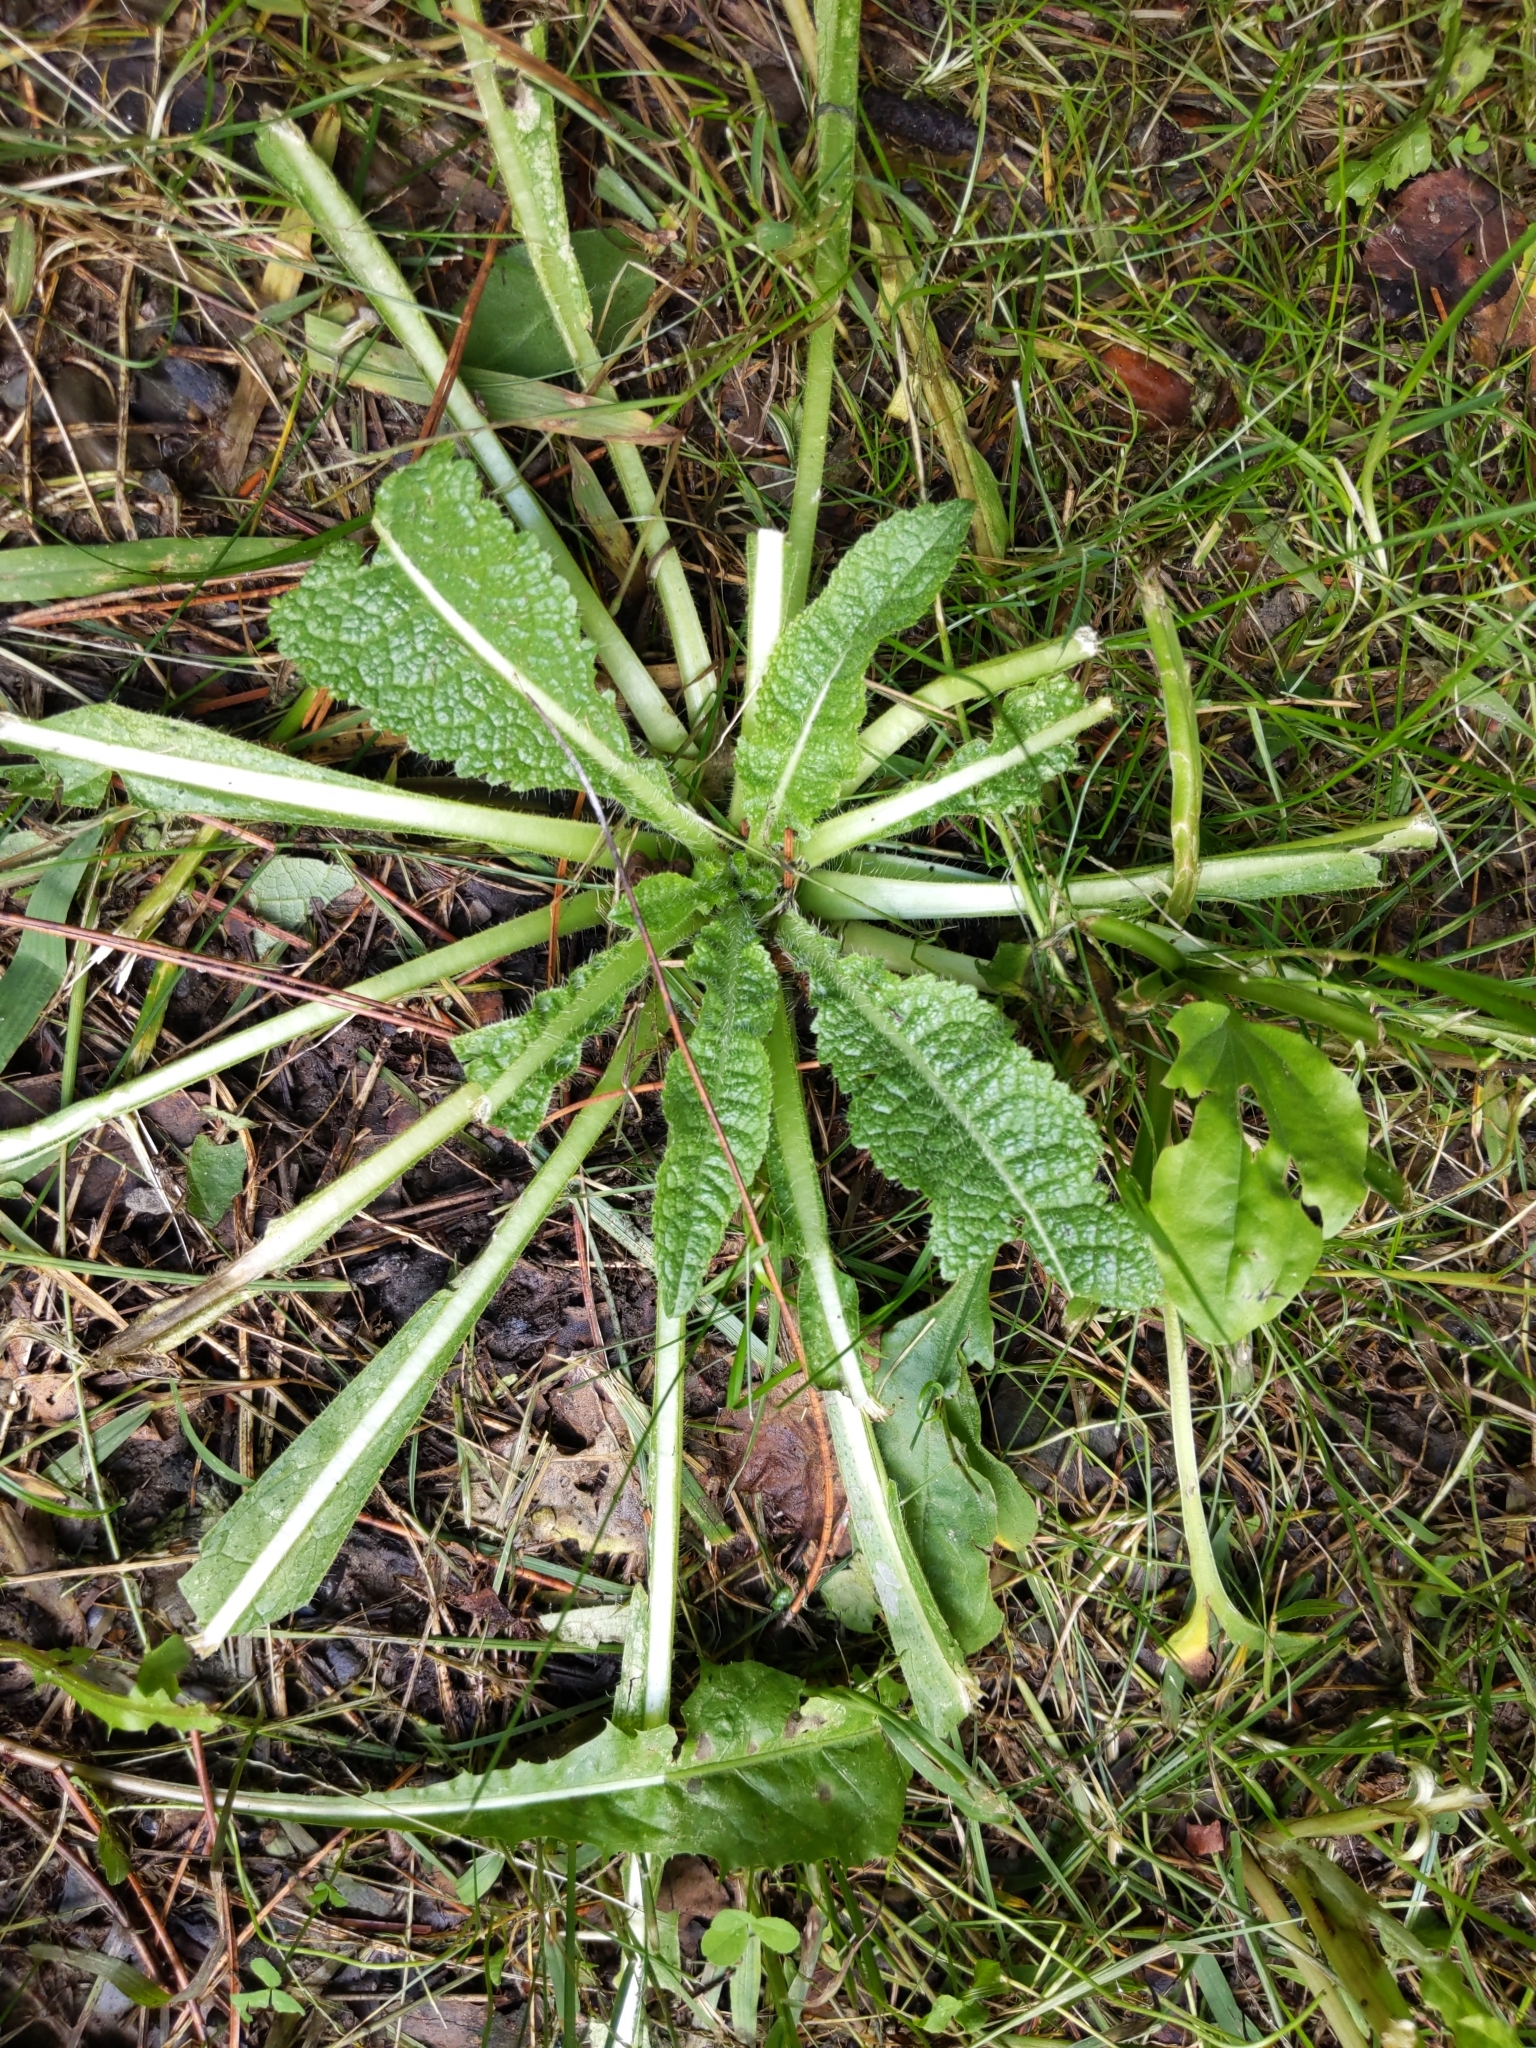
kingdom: Plantae
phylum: Tracheophyta
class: Magnoliopsida
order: Dipsacales
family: Caprifoliaceae
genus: Dipsacus
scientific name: Dipsacus laciniatus
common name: Cut-leaved teasel
